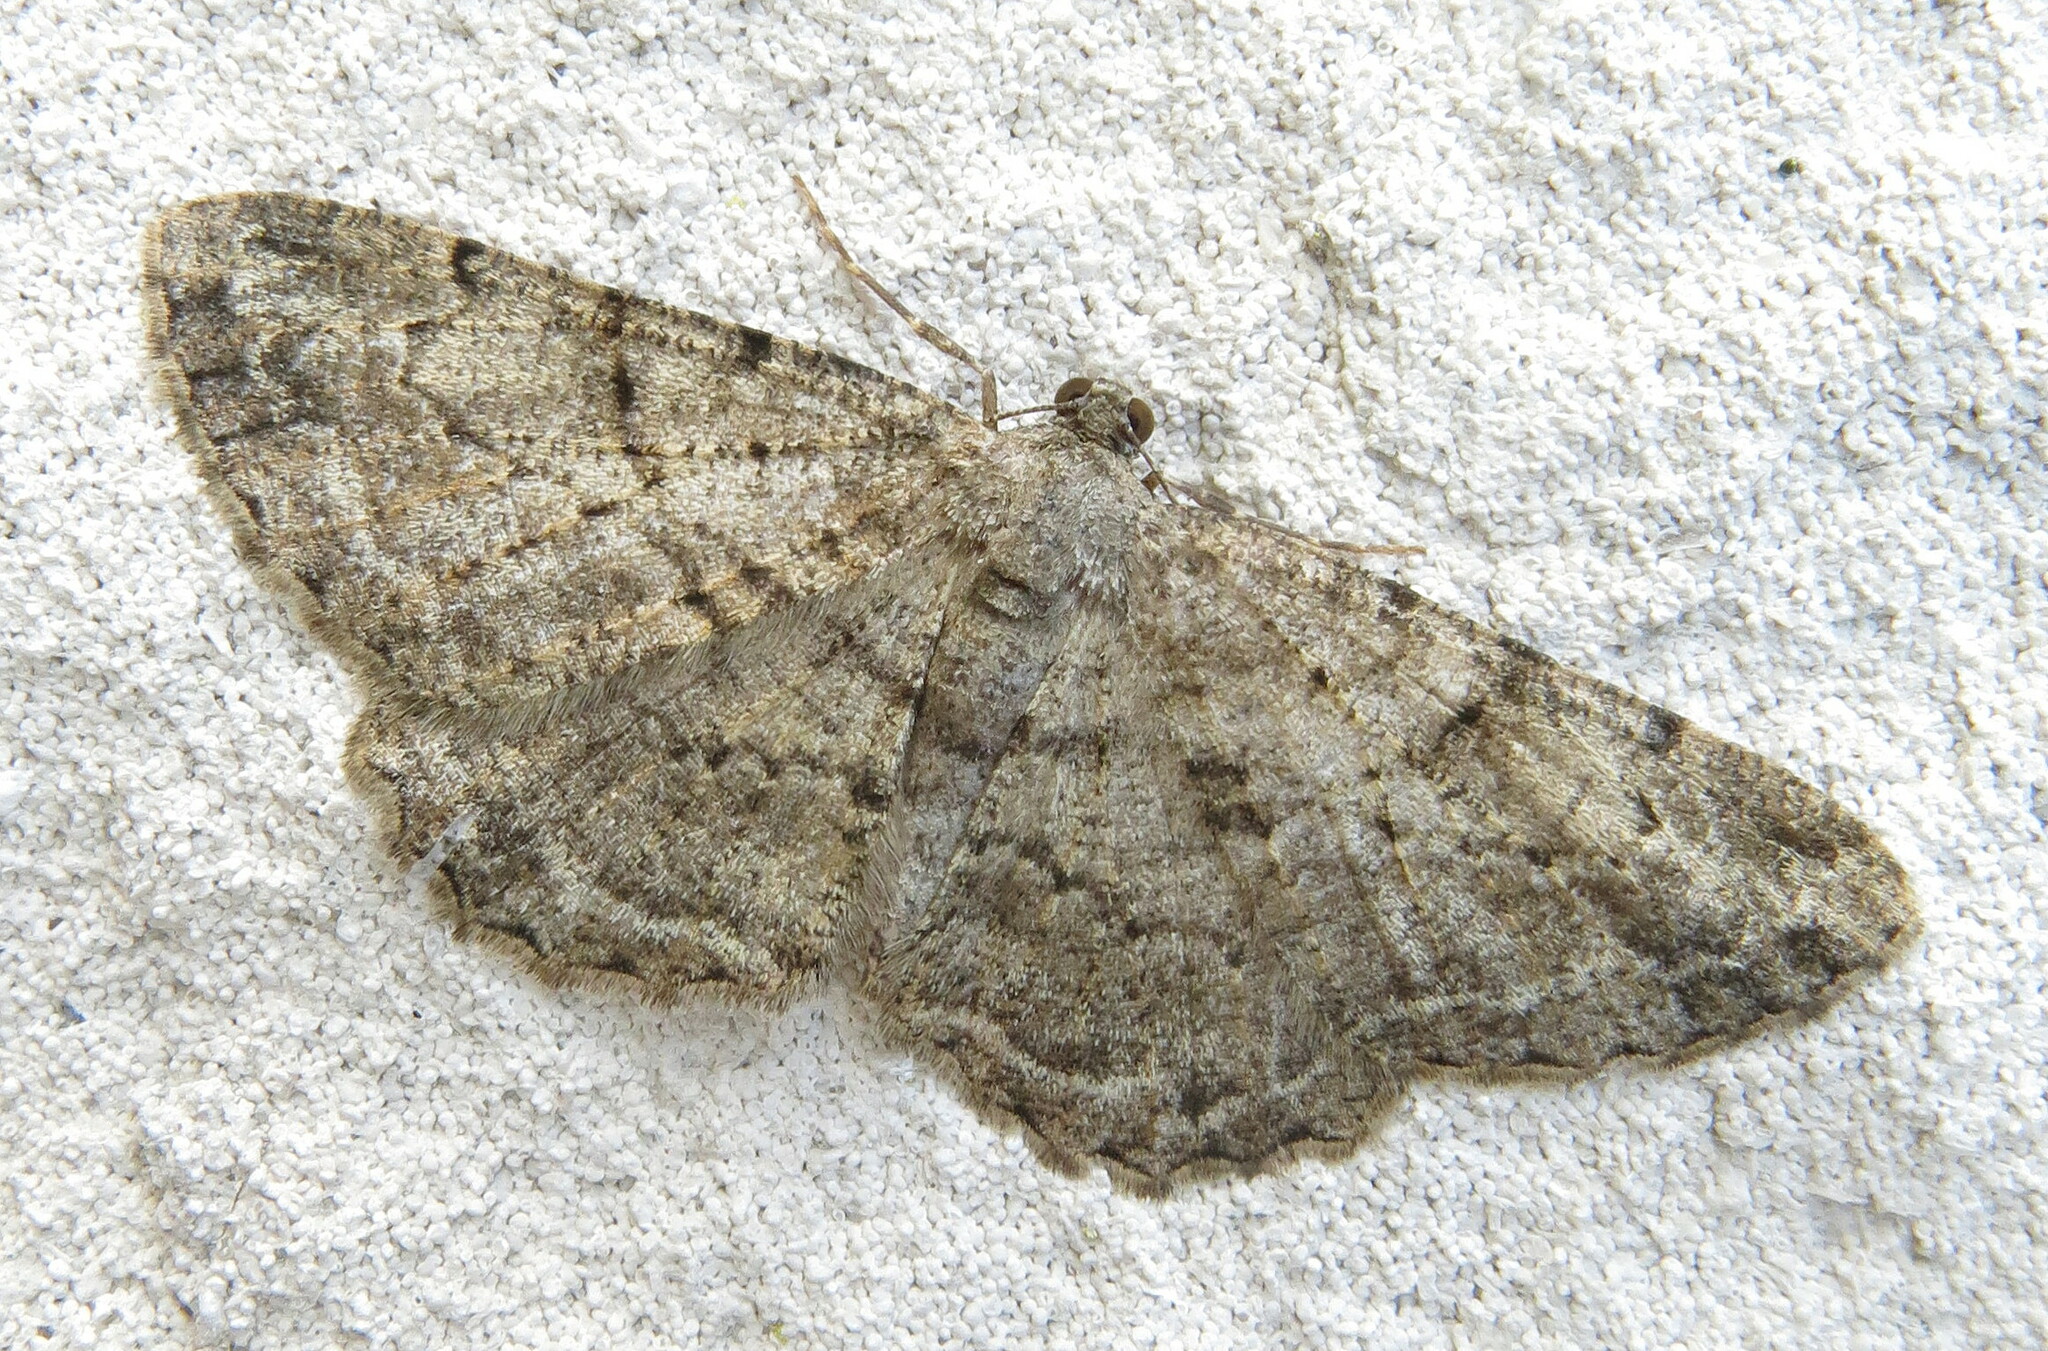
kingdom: Animalia
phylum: Arthropoda
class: Insecta
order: Lepidoptera
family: Geometridae
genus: Peribatodes
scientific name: Peribatodes rhomboidaria
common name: Willow beauty
